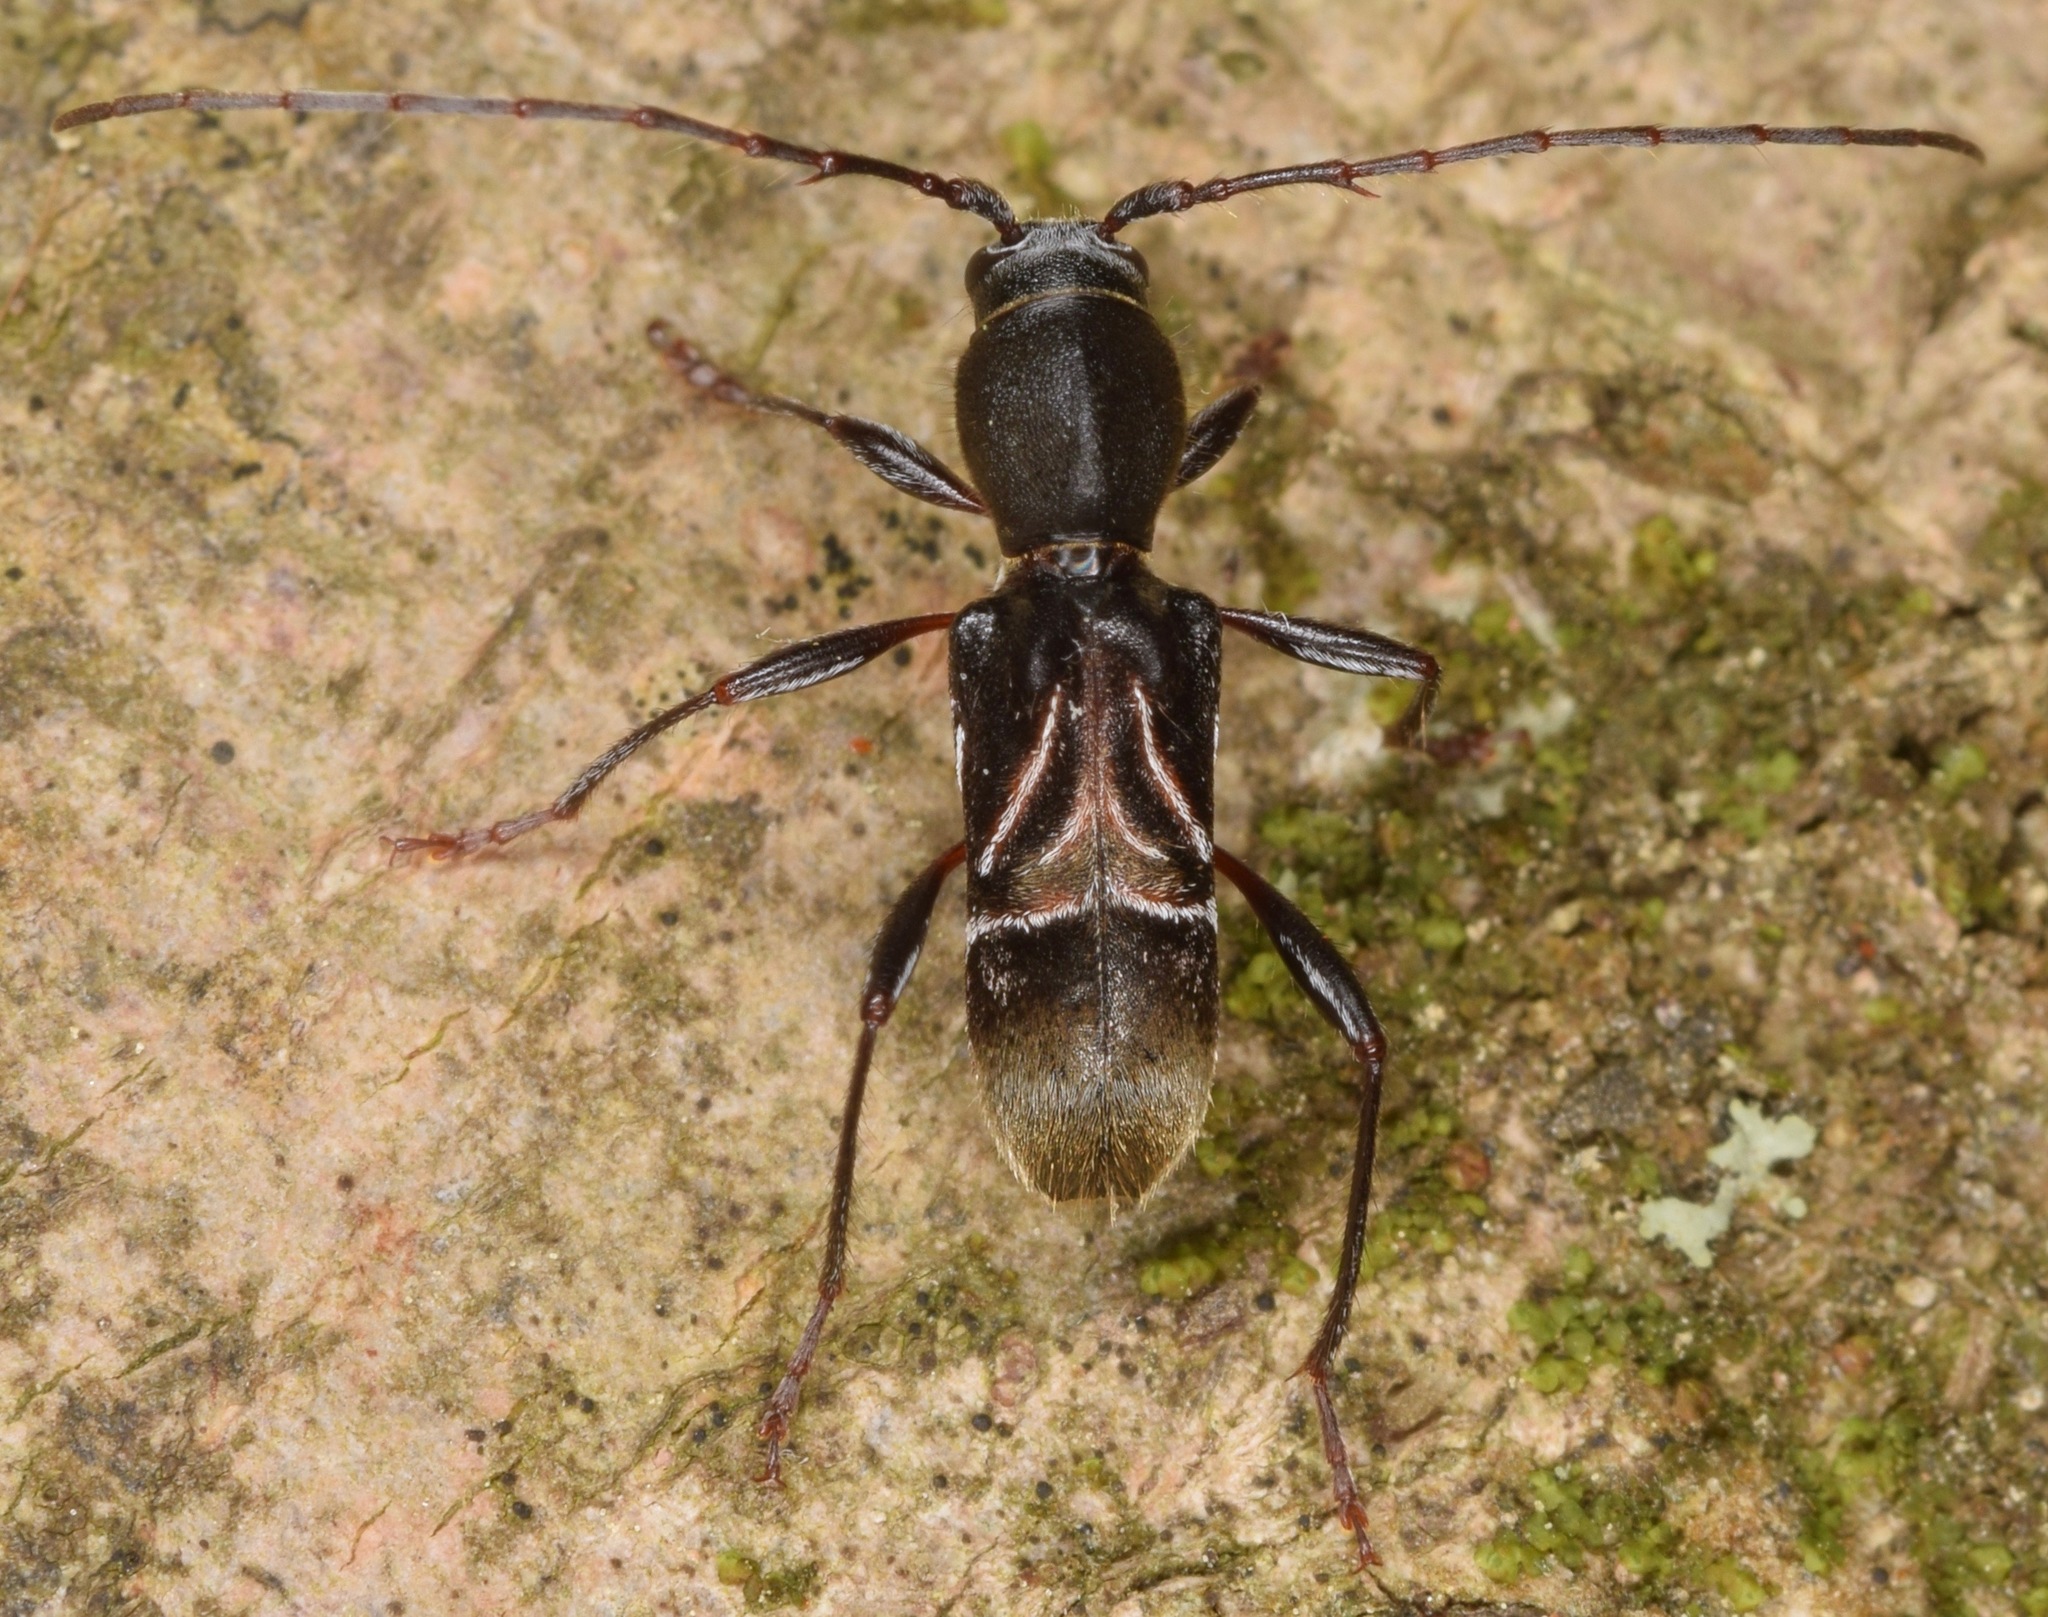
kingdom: Animalia
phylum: Arthropoda
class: Insecta
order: Coleoptera
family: Cerambycidae
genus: Cyrtophorus
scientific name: Cyrtophorus verrucosus
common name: Ant-like longhorn beetle
